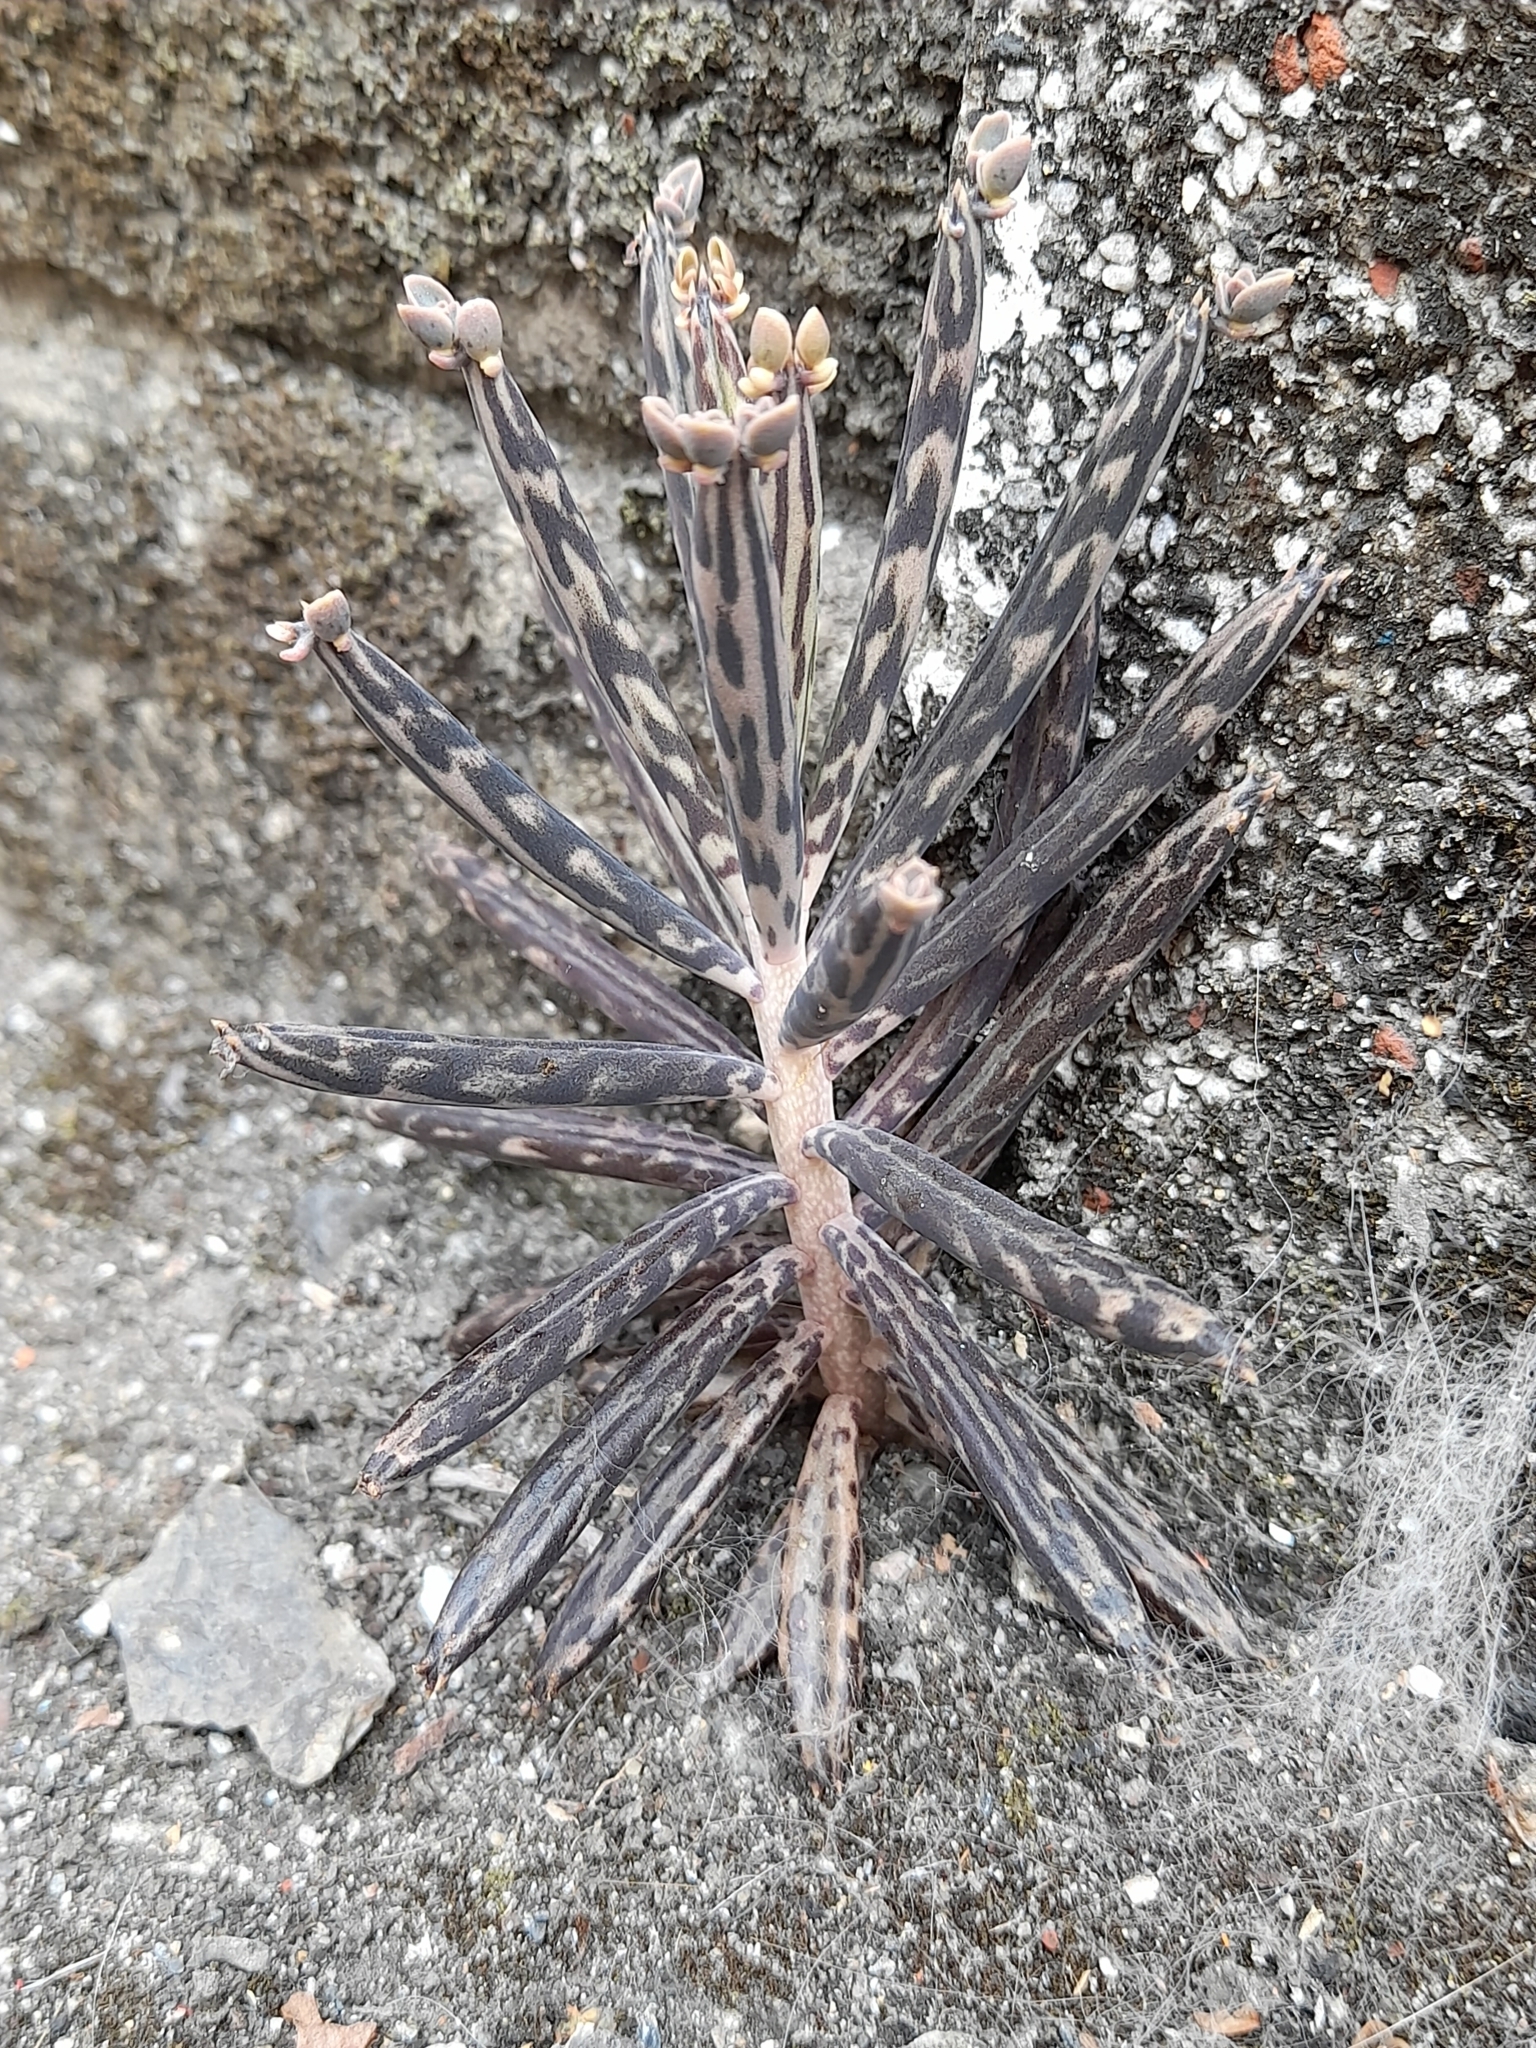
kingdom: Plantae
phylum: Tracheophyta
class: Magnoliopsida
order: Saxifragales
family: Crassulaceae
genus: Kalanchoe
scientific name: Kalanchoe delagoensis
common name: Chandelier plant
